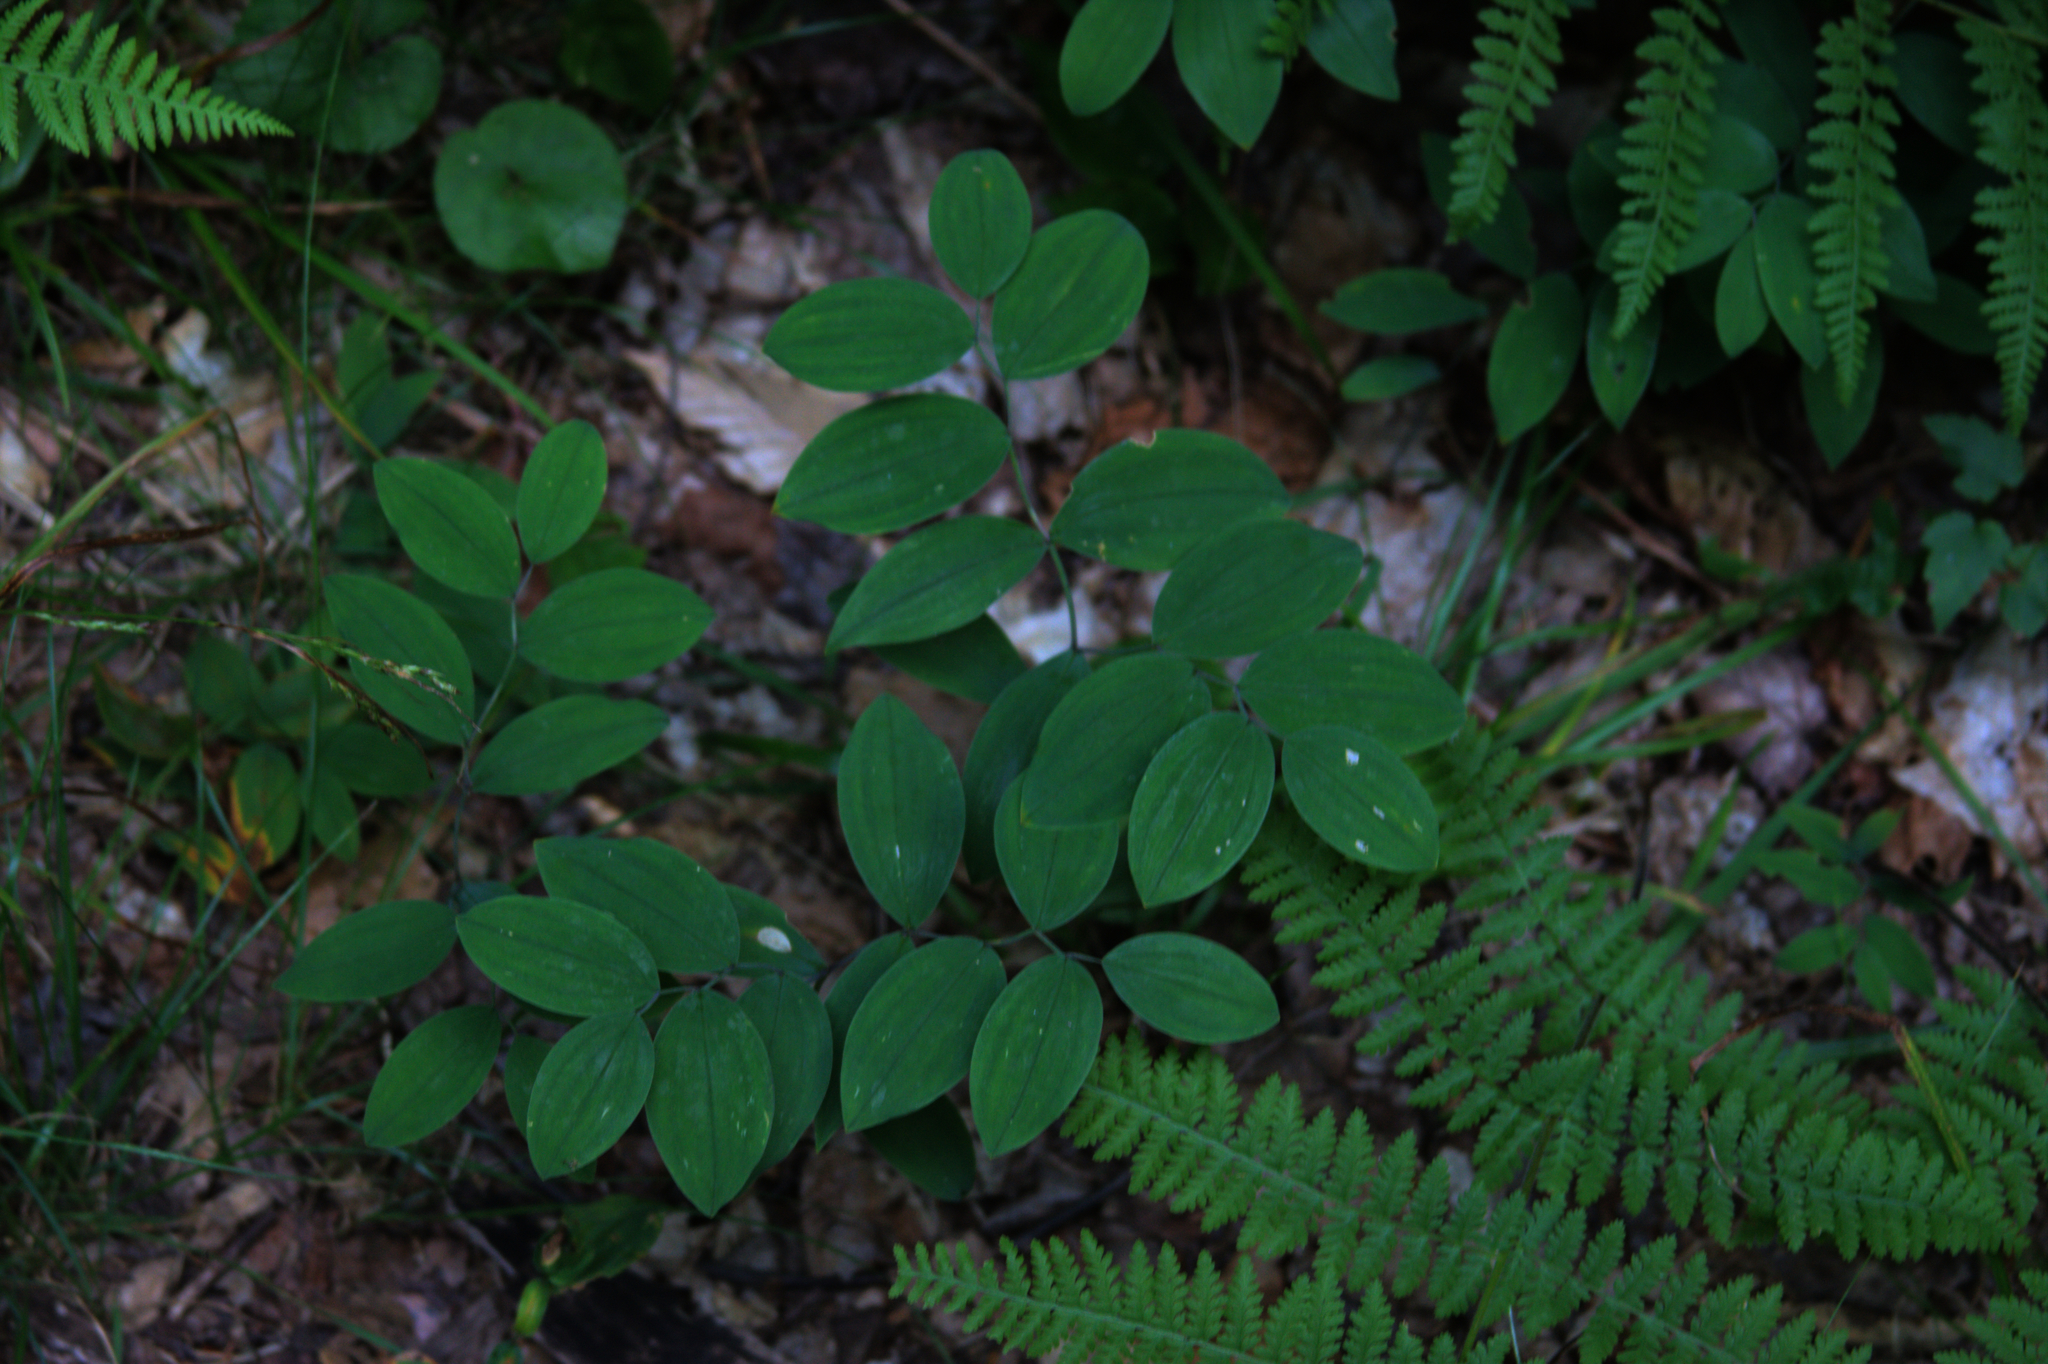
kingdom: Plantae
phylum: Tracheophyta
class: Liliopsida
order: Liliales
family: Colchicaceae
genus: Uvularia
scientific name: Uvularia sessilifolia
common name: Straw-lily
